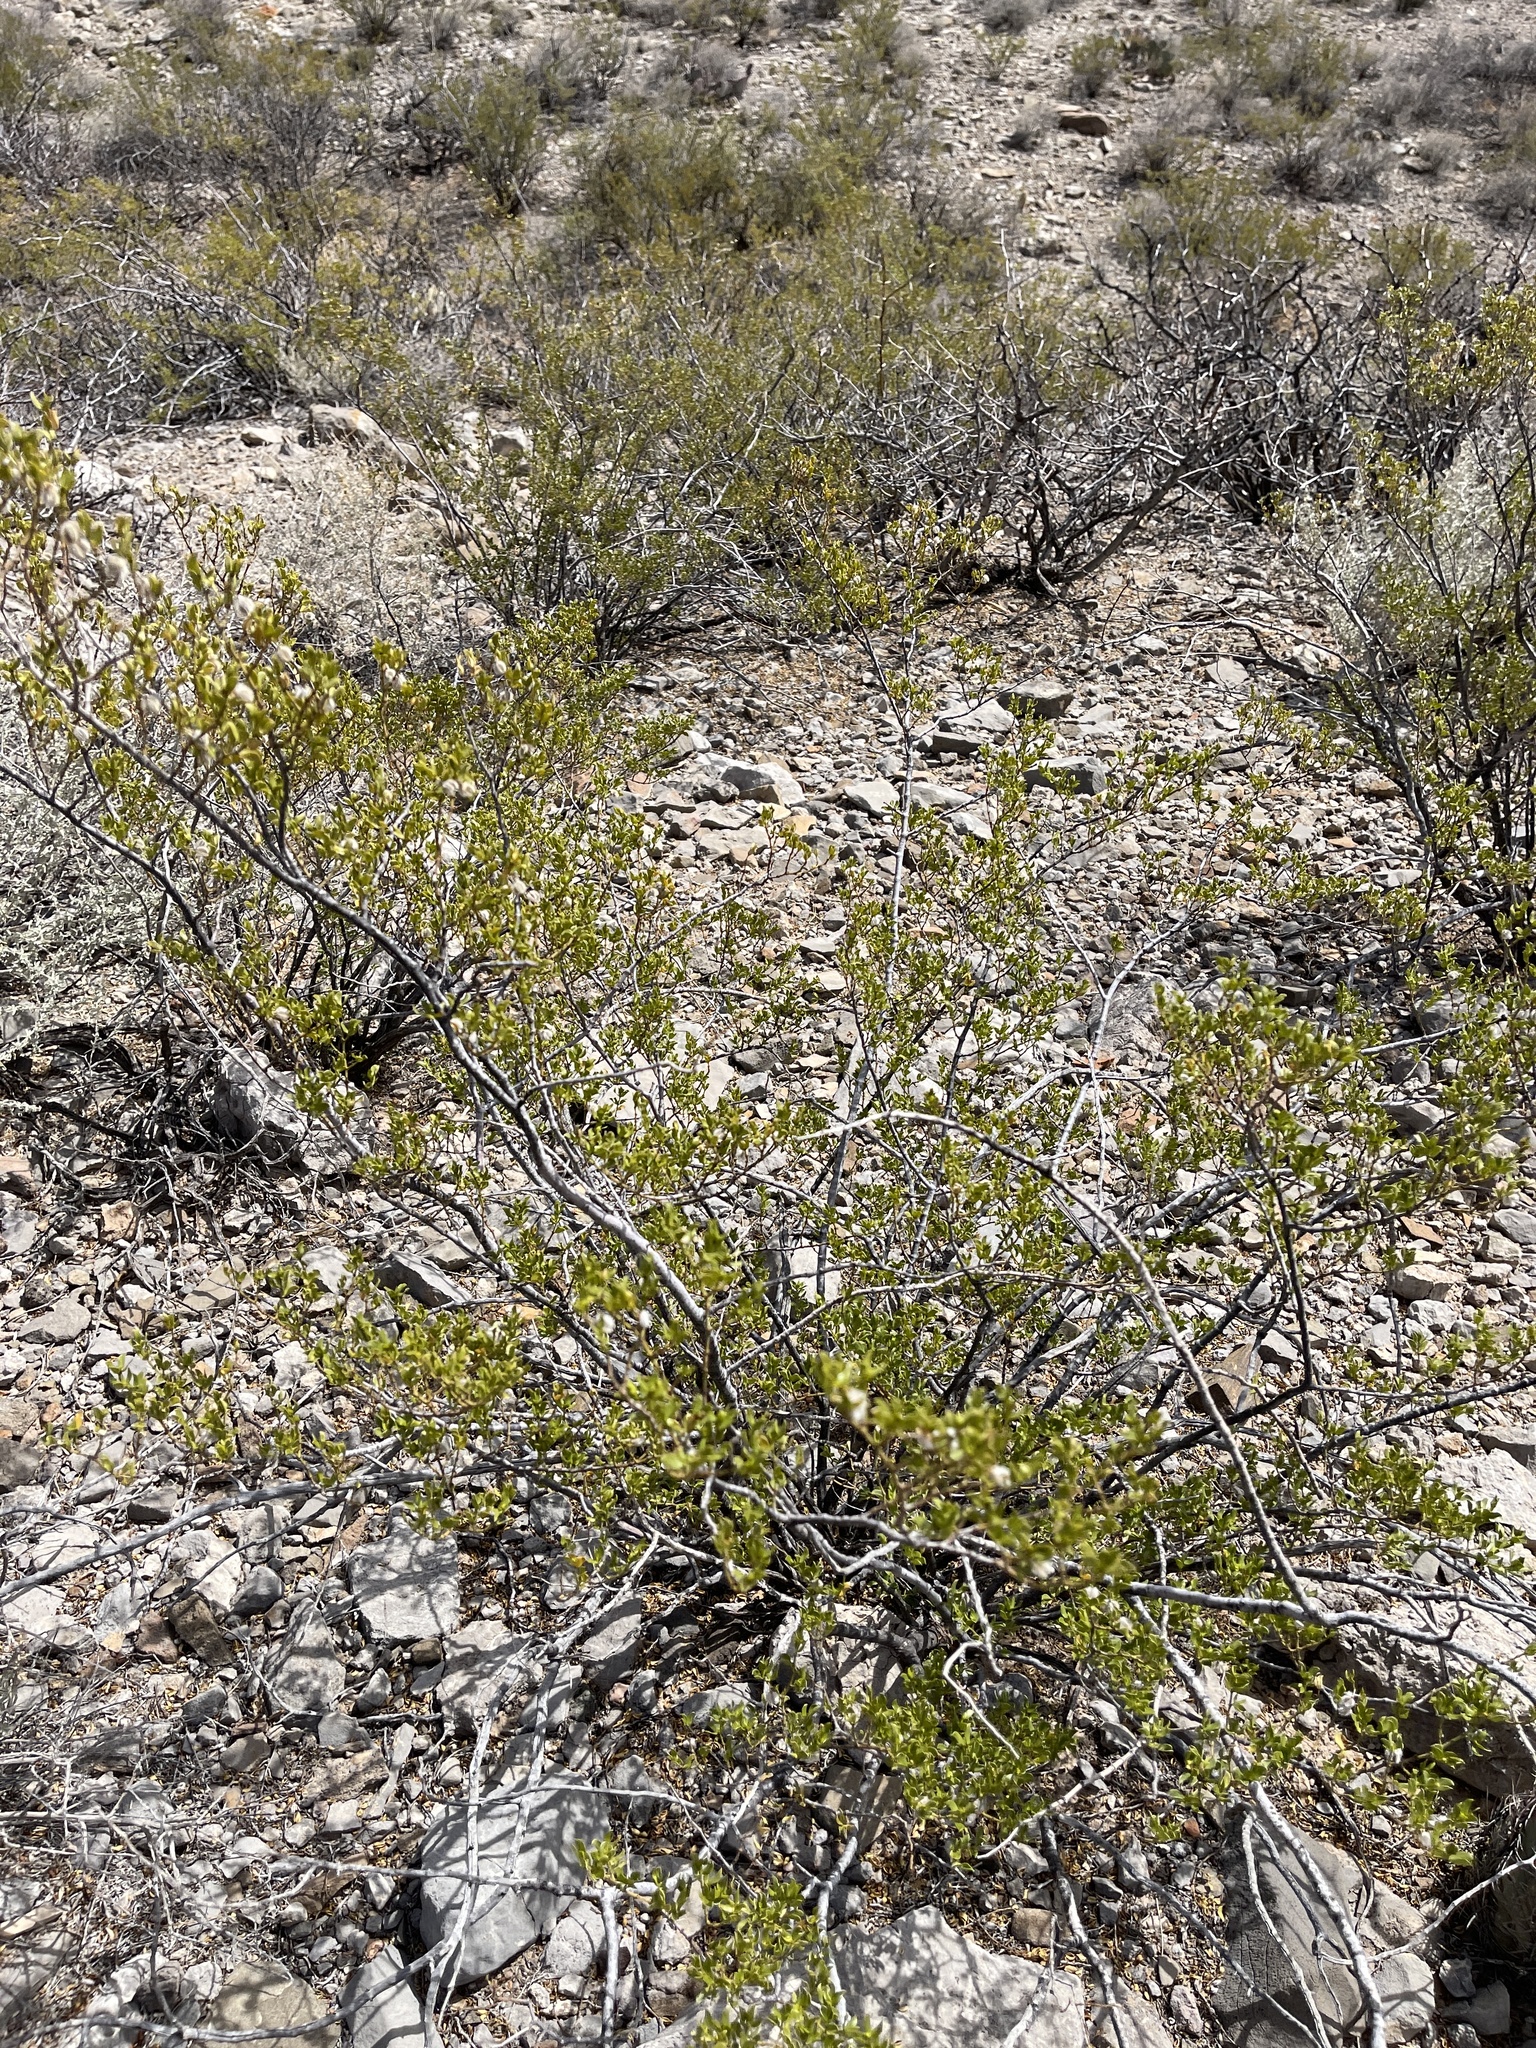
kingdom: Plantae
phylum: Tracheophyta
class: Magnoliopsida
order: Zygophyllales
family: Zygophyllaceae
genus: Larrea
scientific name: Larrea tridentata
